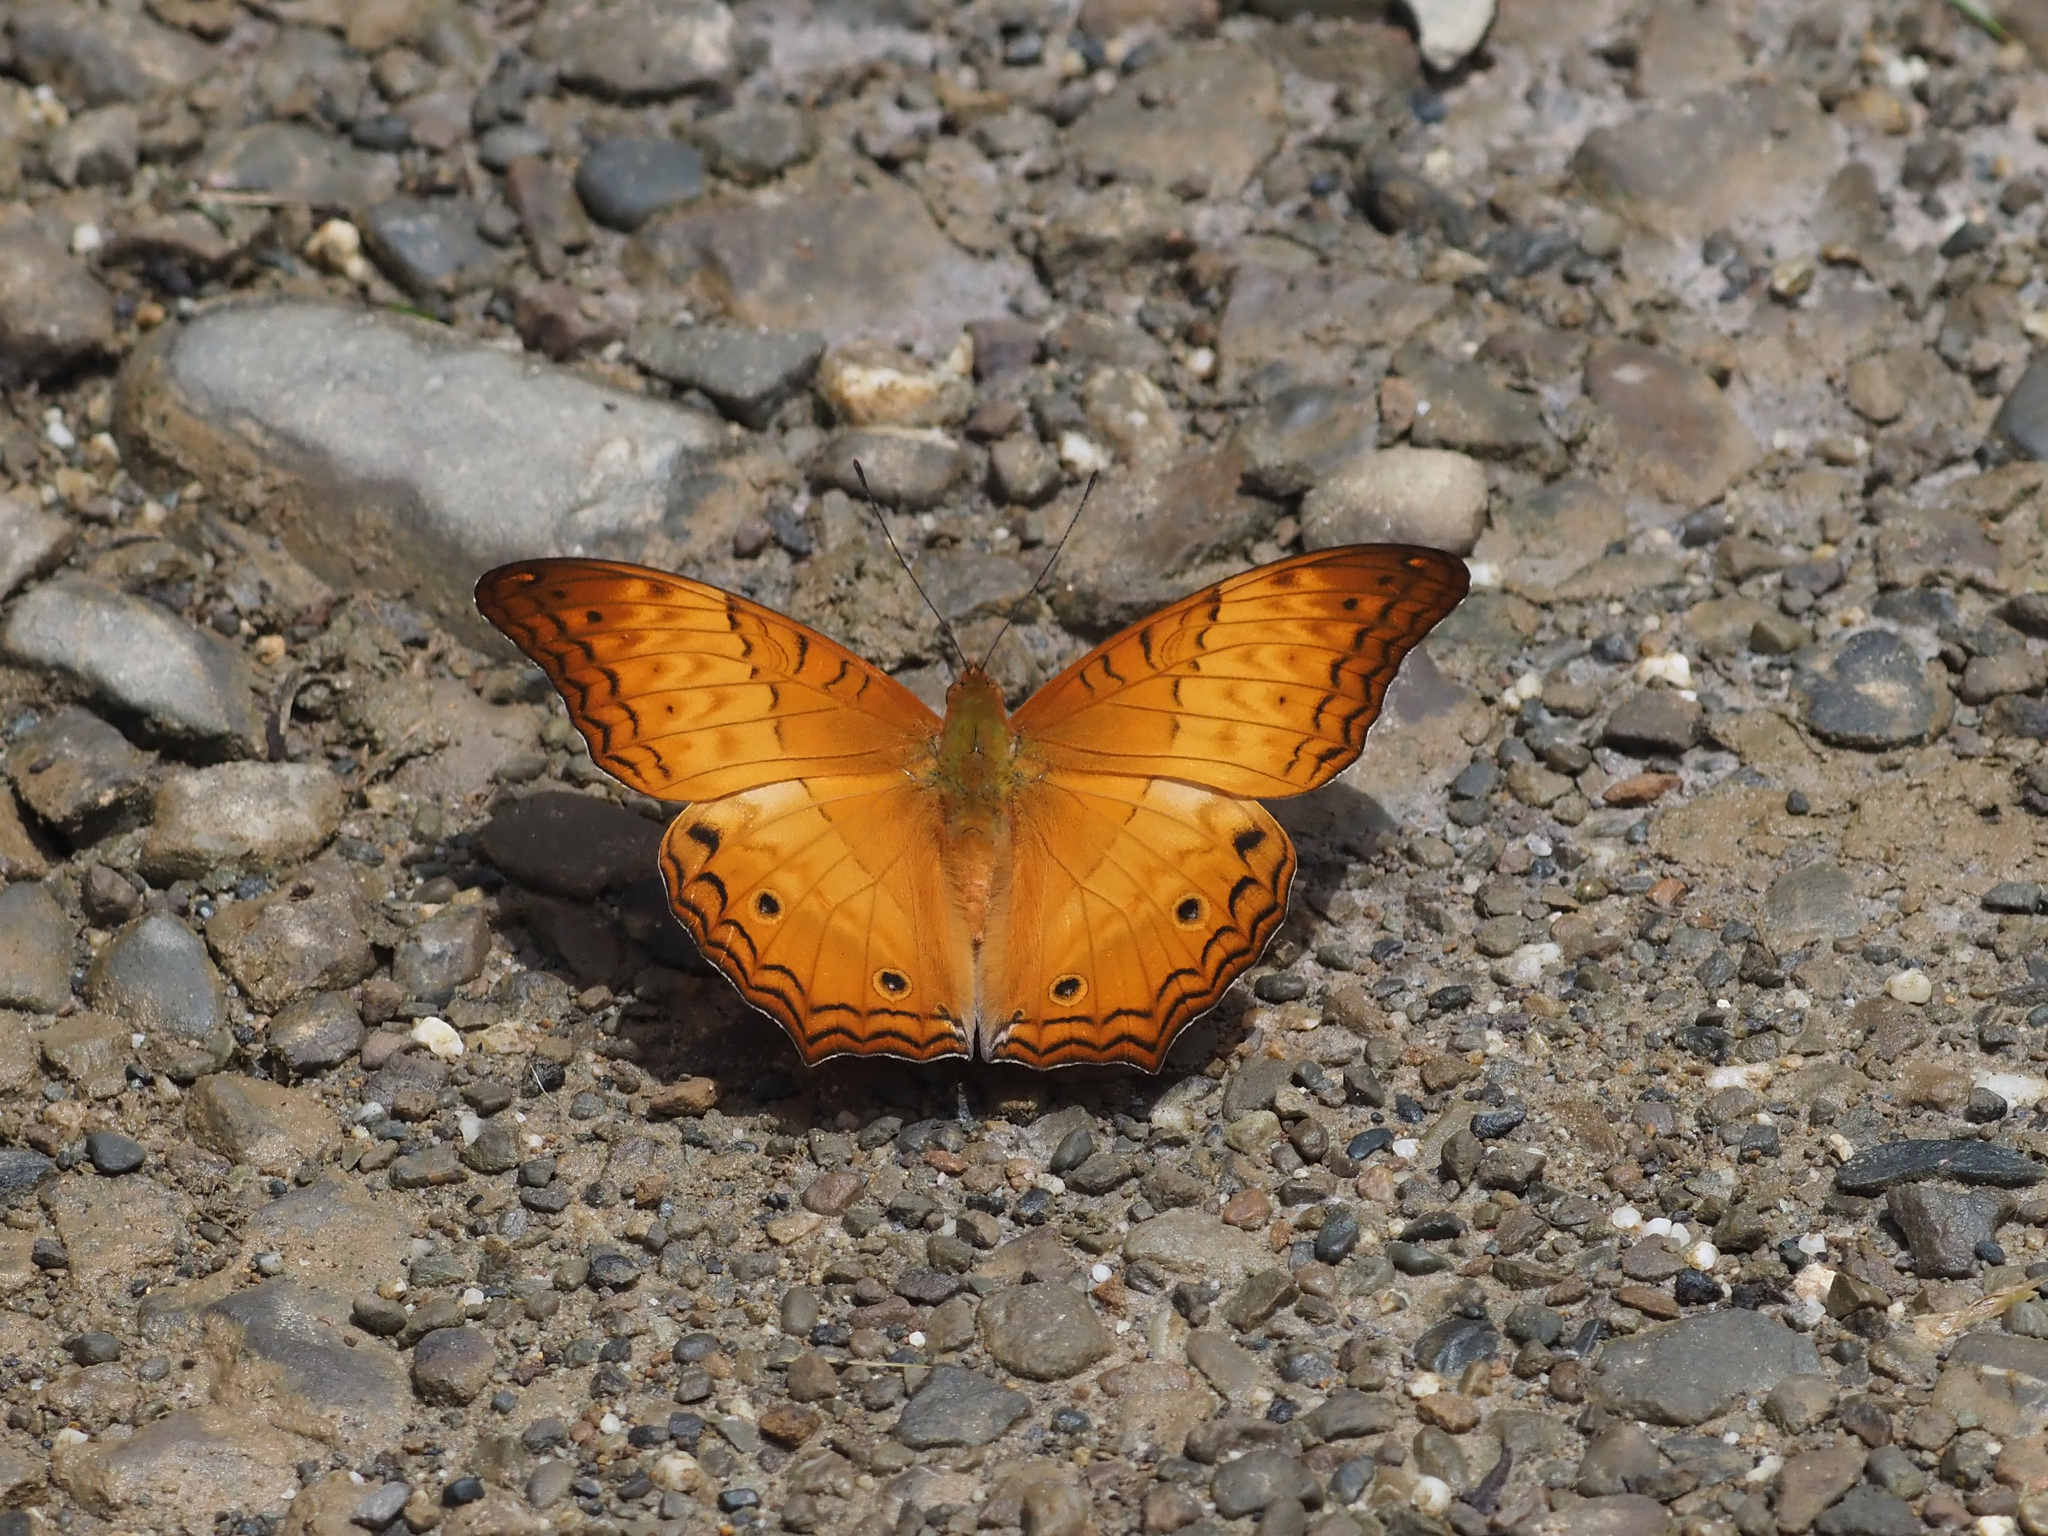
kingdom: Animalia
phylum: Arthropoda
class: Insecta
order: Lepidoptera
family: Nymphalidae
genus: Vindula
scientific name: Vindula deione
